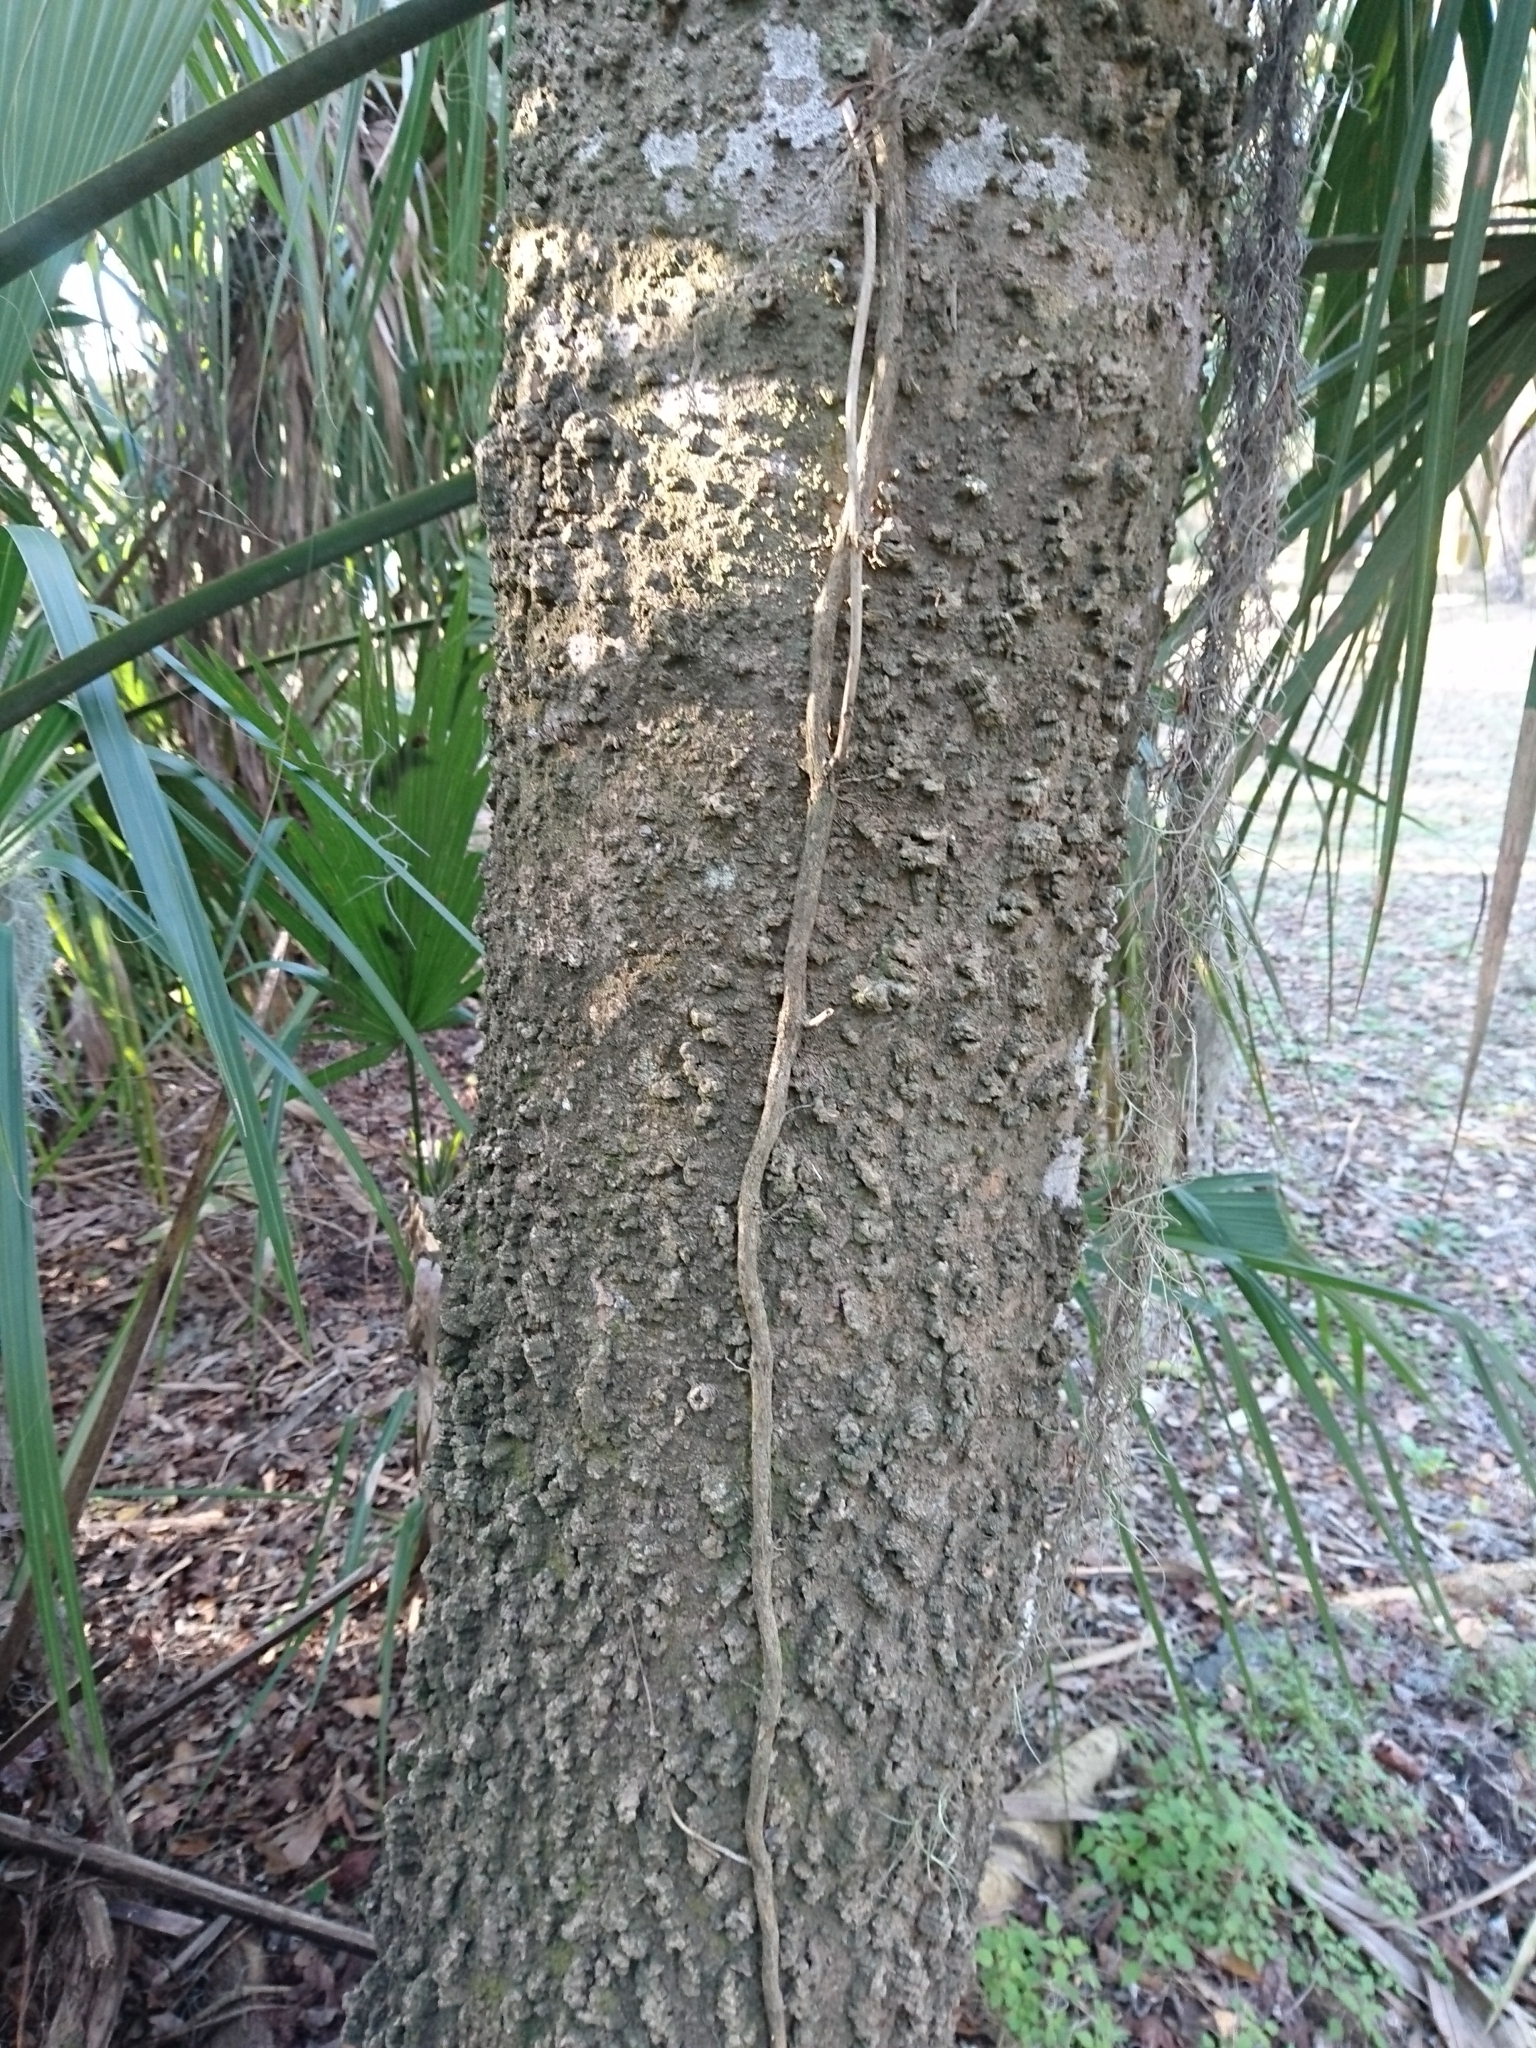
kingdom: Plantae
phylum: Tracheophyta
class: Magnoliopsida
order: Rosales
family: Cannabaceae
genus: Celtis
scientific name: Celtis laevigata
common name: Sugarberry
